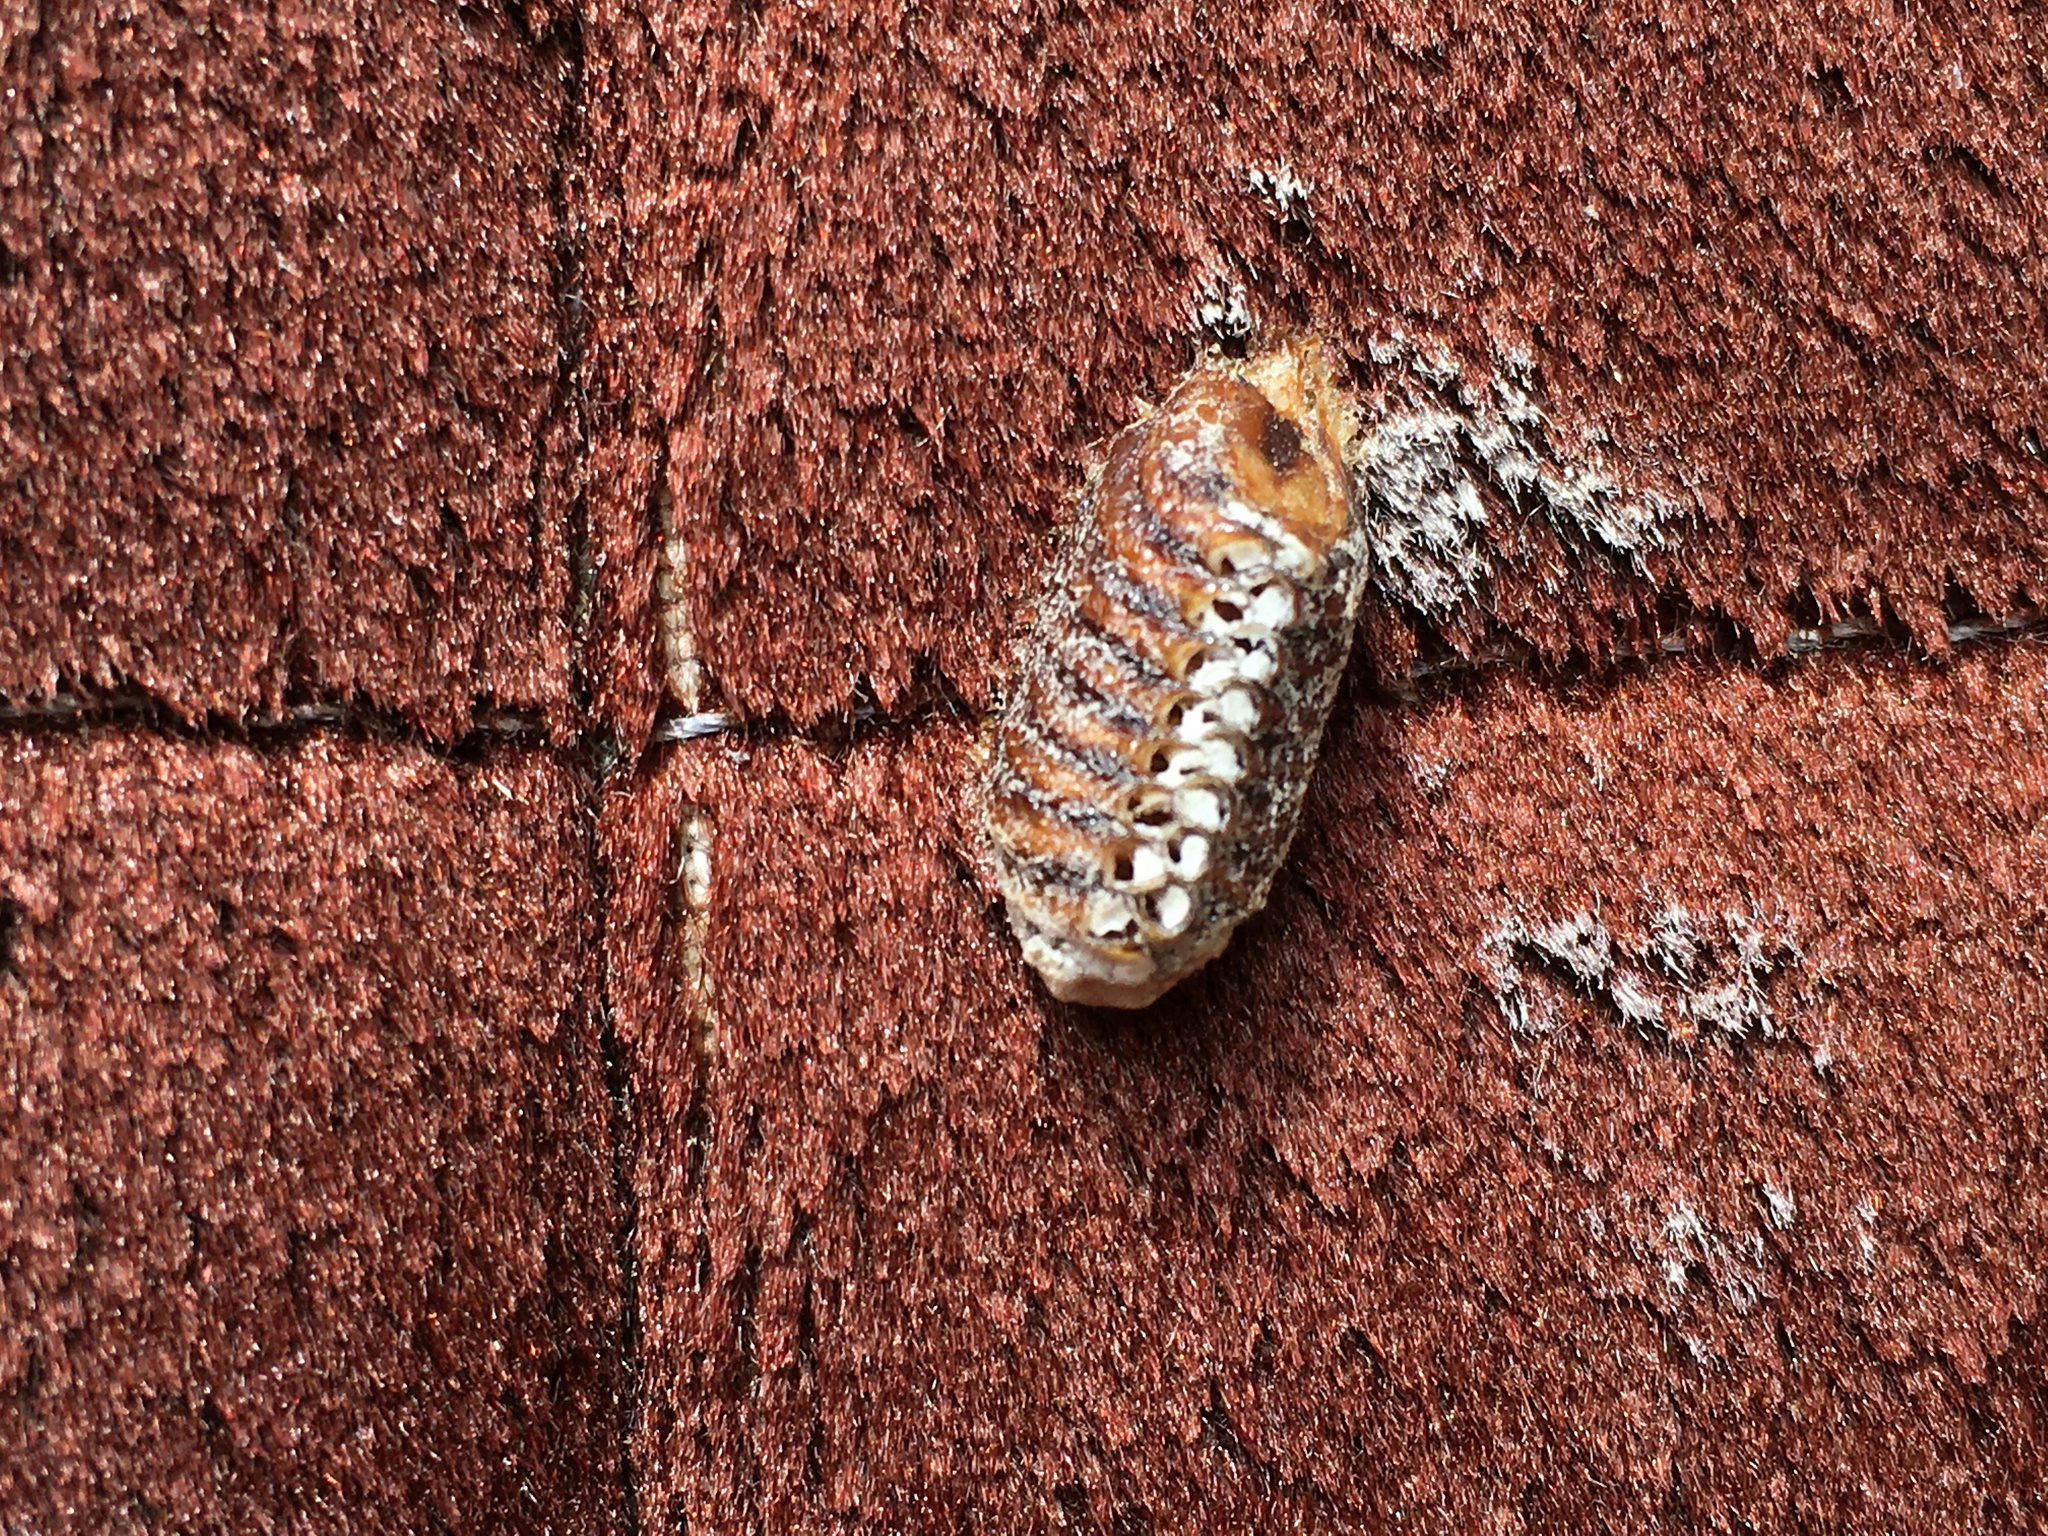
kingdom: Animalia
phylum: Arthropoda
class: Insecta
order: Mantodea
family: Mantidae
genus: Orthodera
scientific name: Orthodera novaezealandiae
